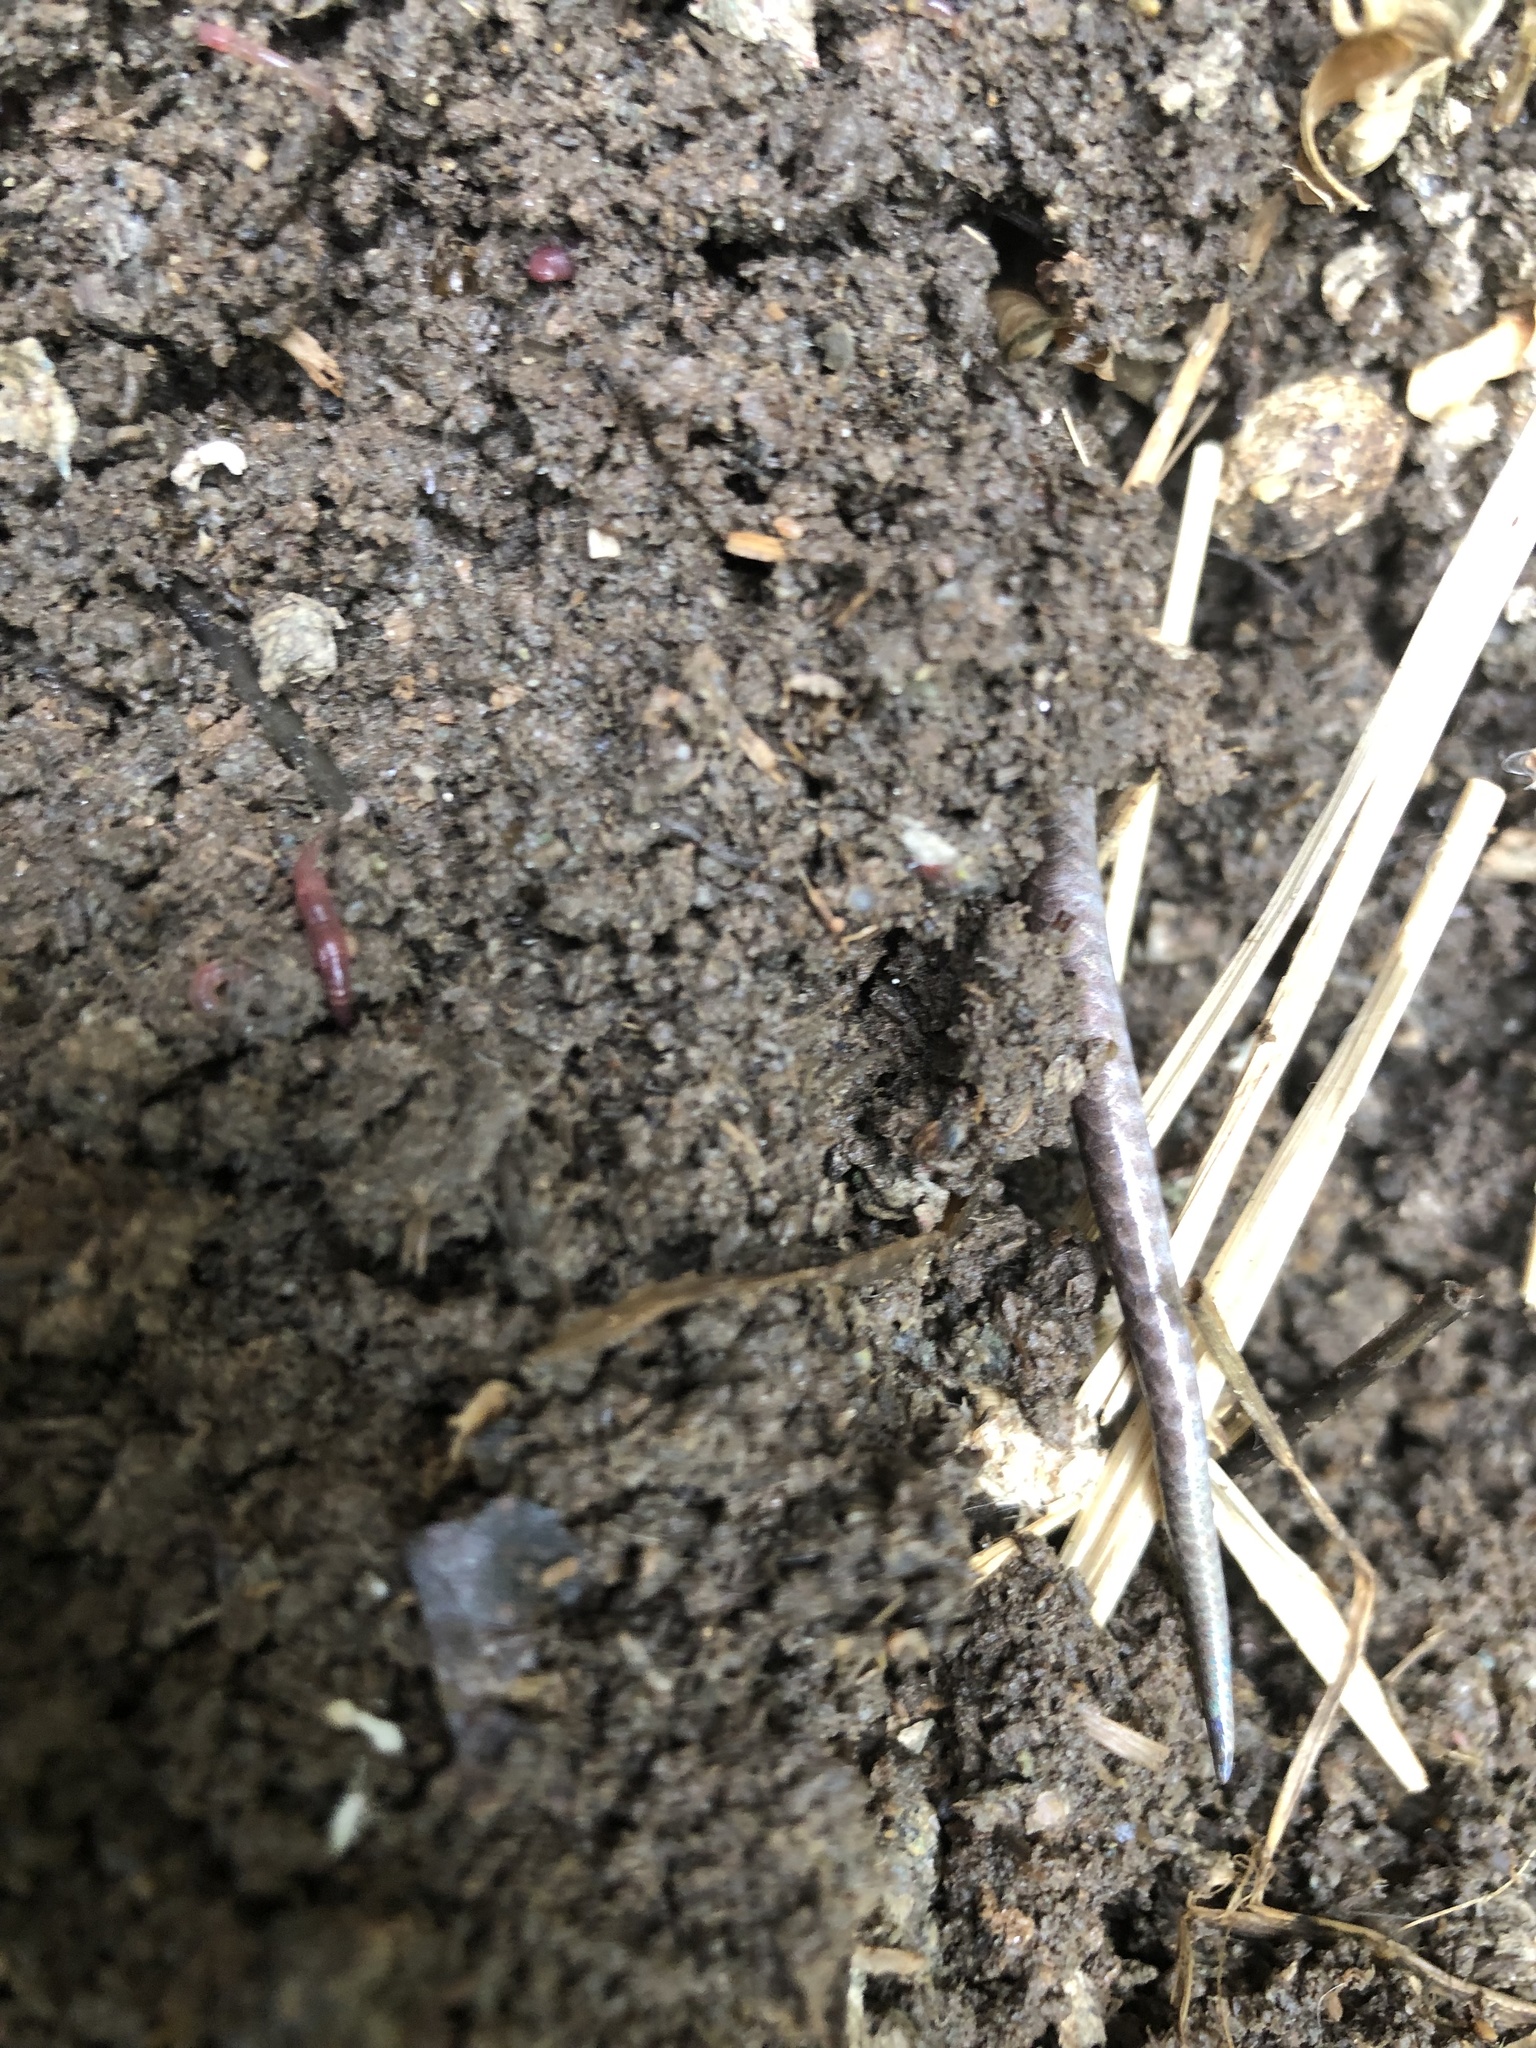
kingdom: Animalia
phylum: Chordata
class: Squamata
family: Scincidae
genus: Plestiodon
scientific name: Plestiodon
